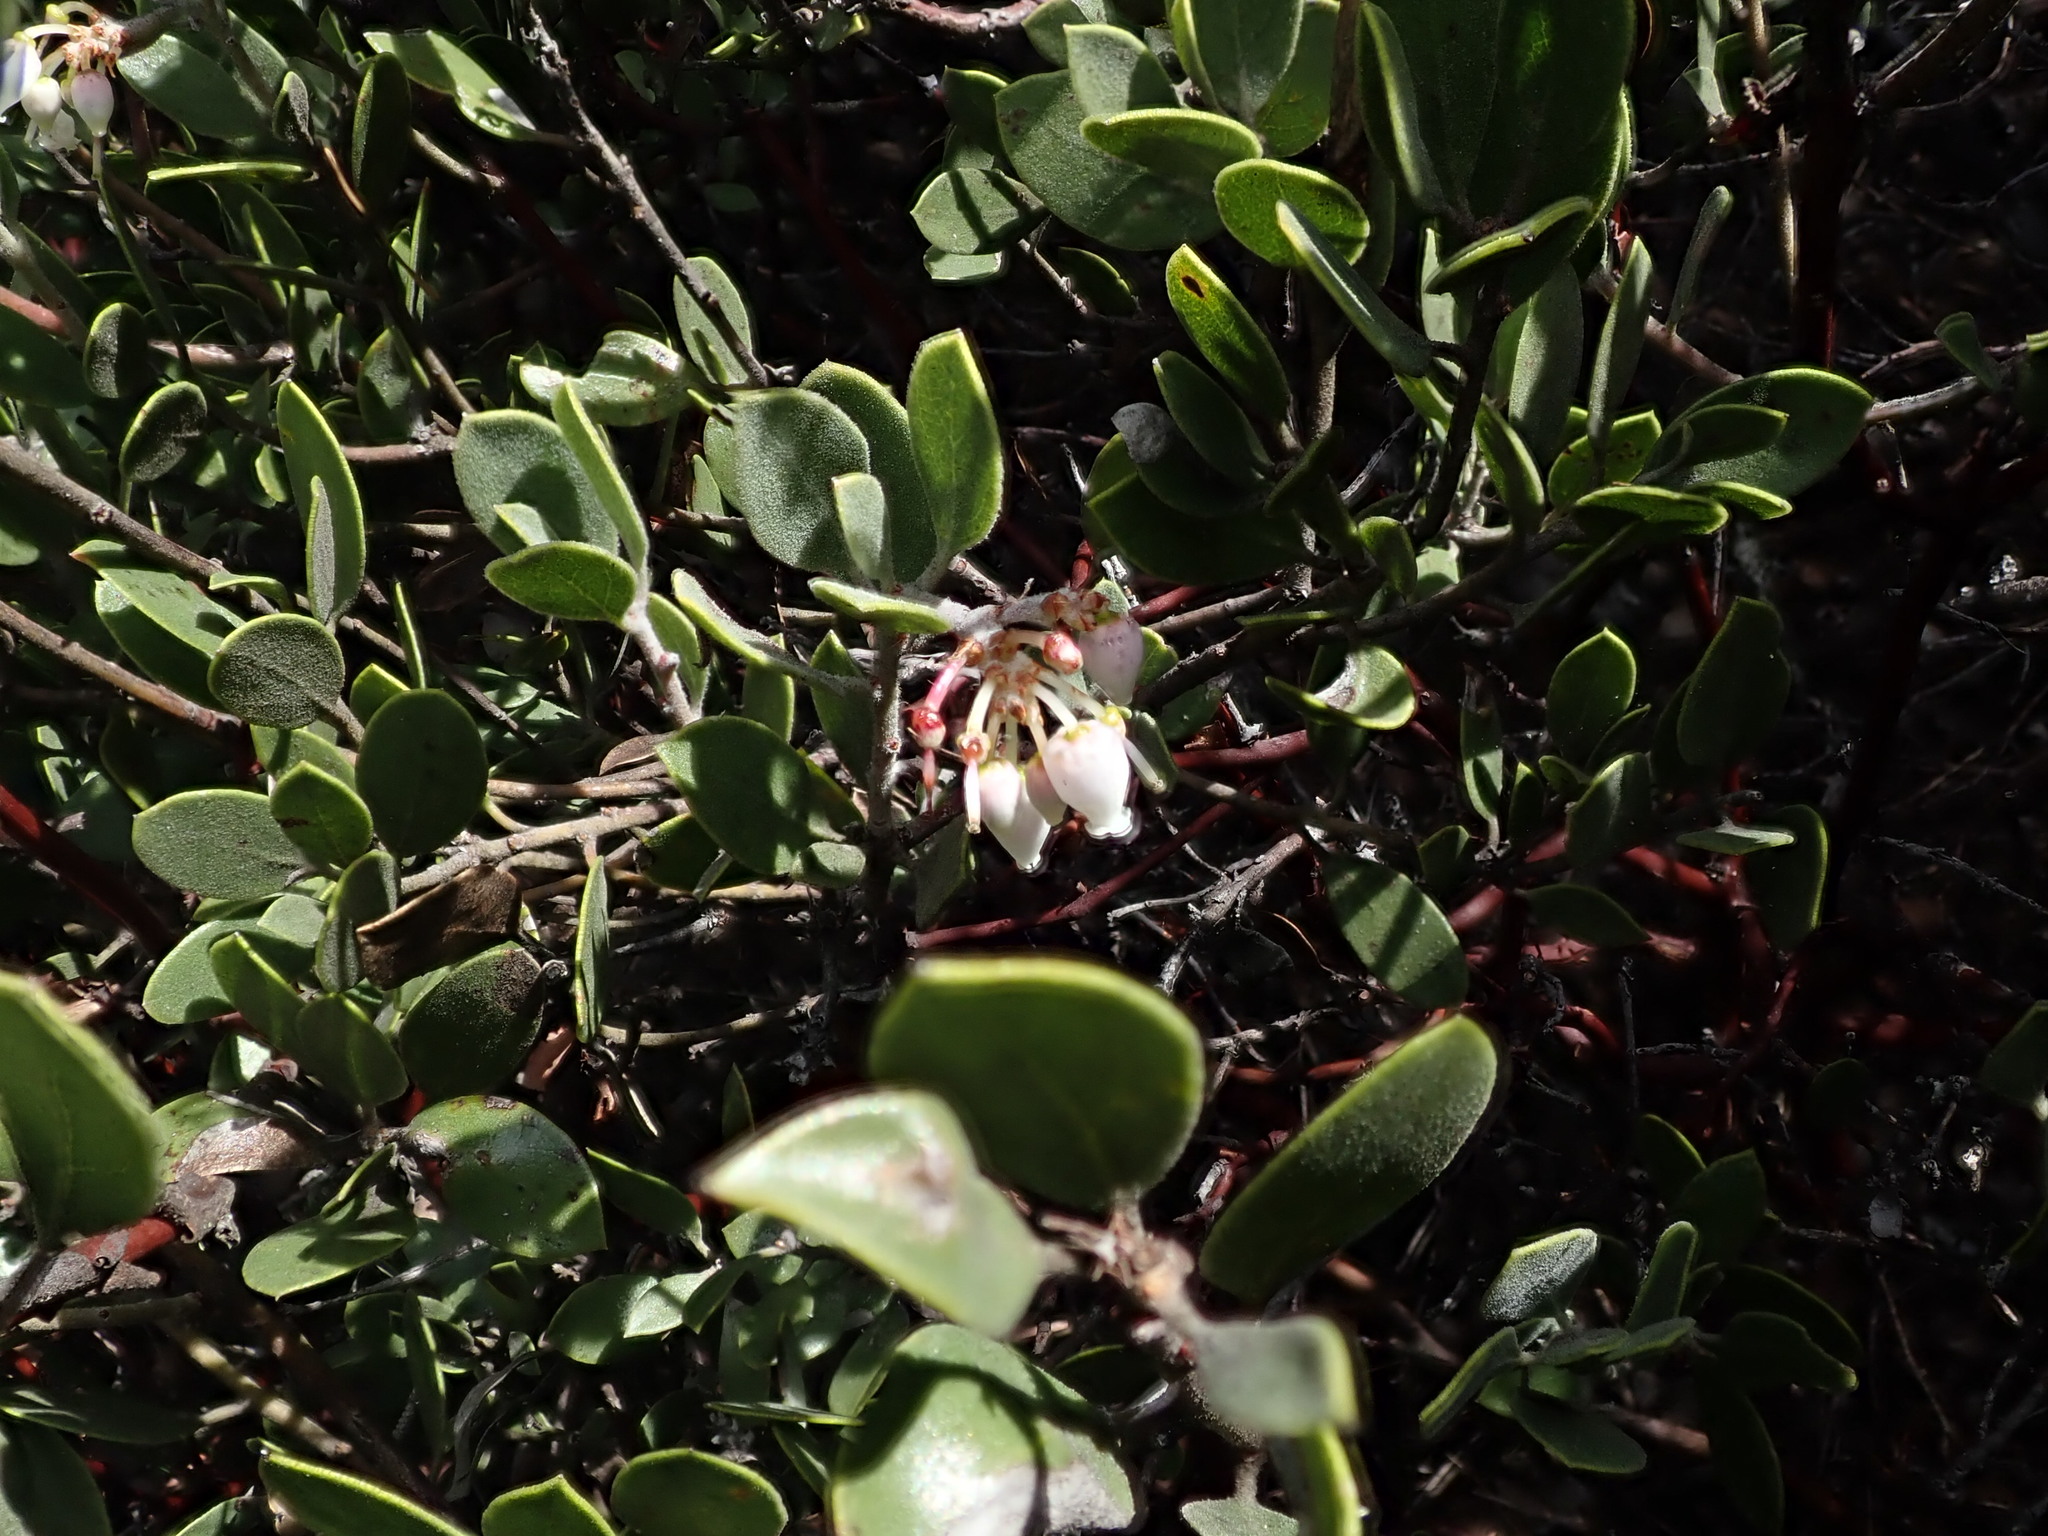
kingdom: Plantae
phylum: Tracheophyta
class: Magnoliopsida
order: Ericales
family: Ericaceae
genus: Arctostaphylos
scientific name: Arctostaphylos montana
